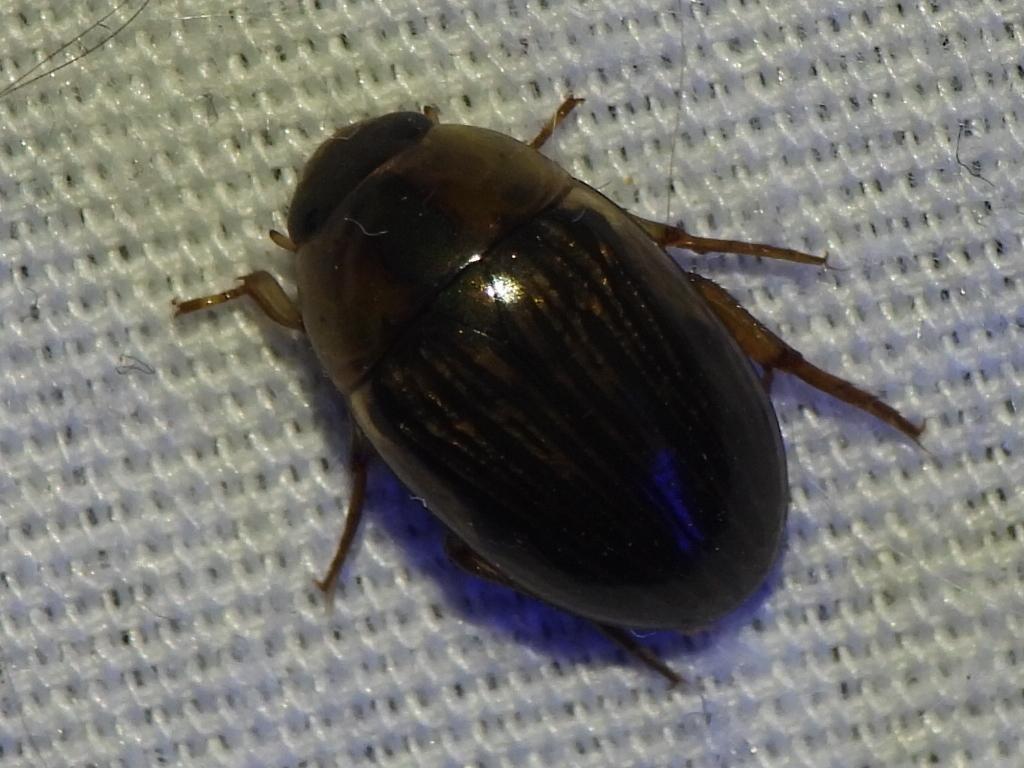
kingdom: Animalia
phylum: Arthropoda
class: Insecta
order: Coleoptera
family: Hydrophilidae
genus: Tropisternus
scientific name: Tropisternus collaris
